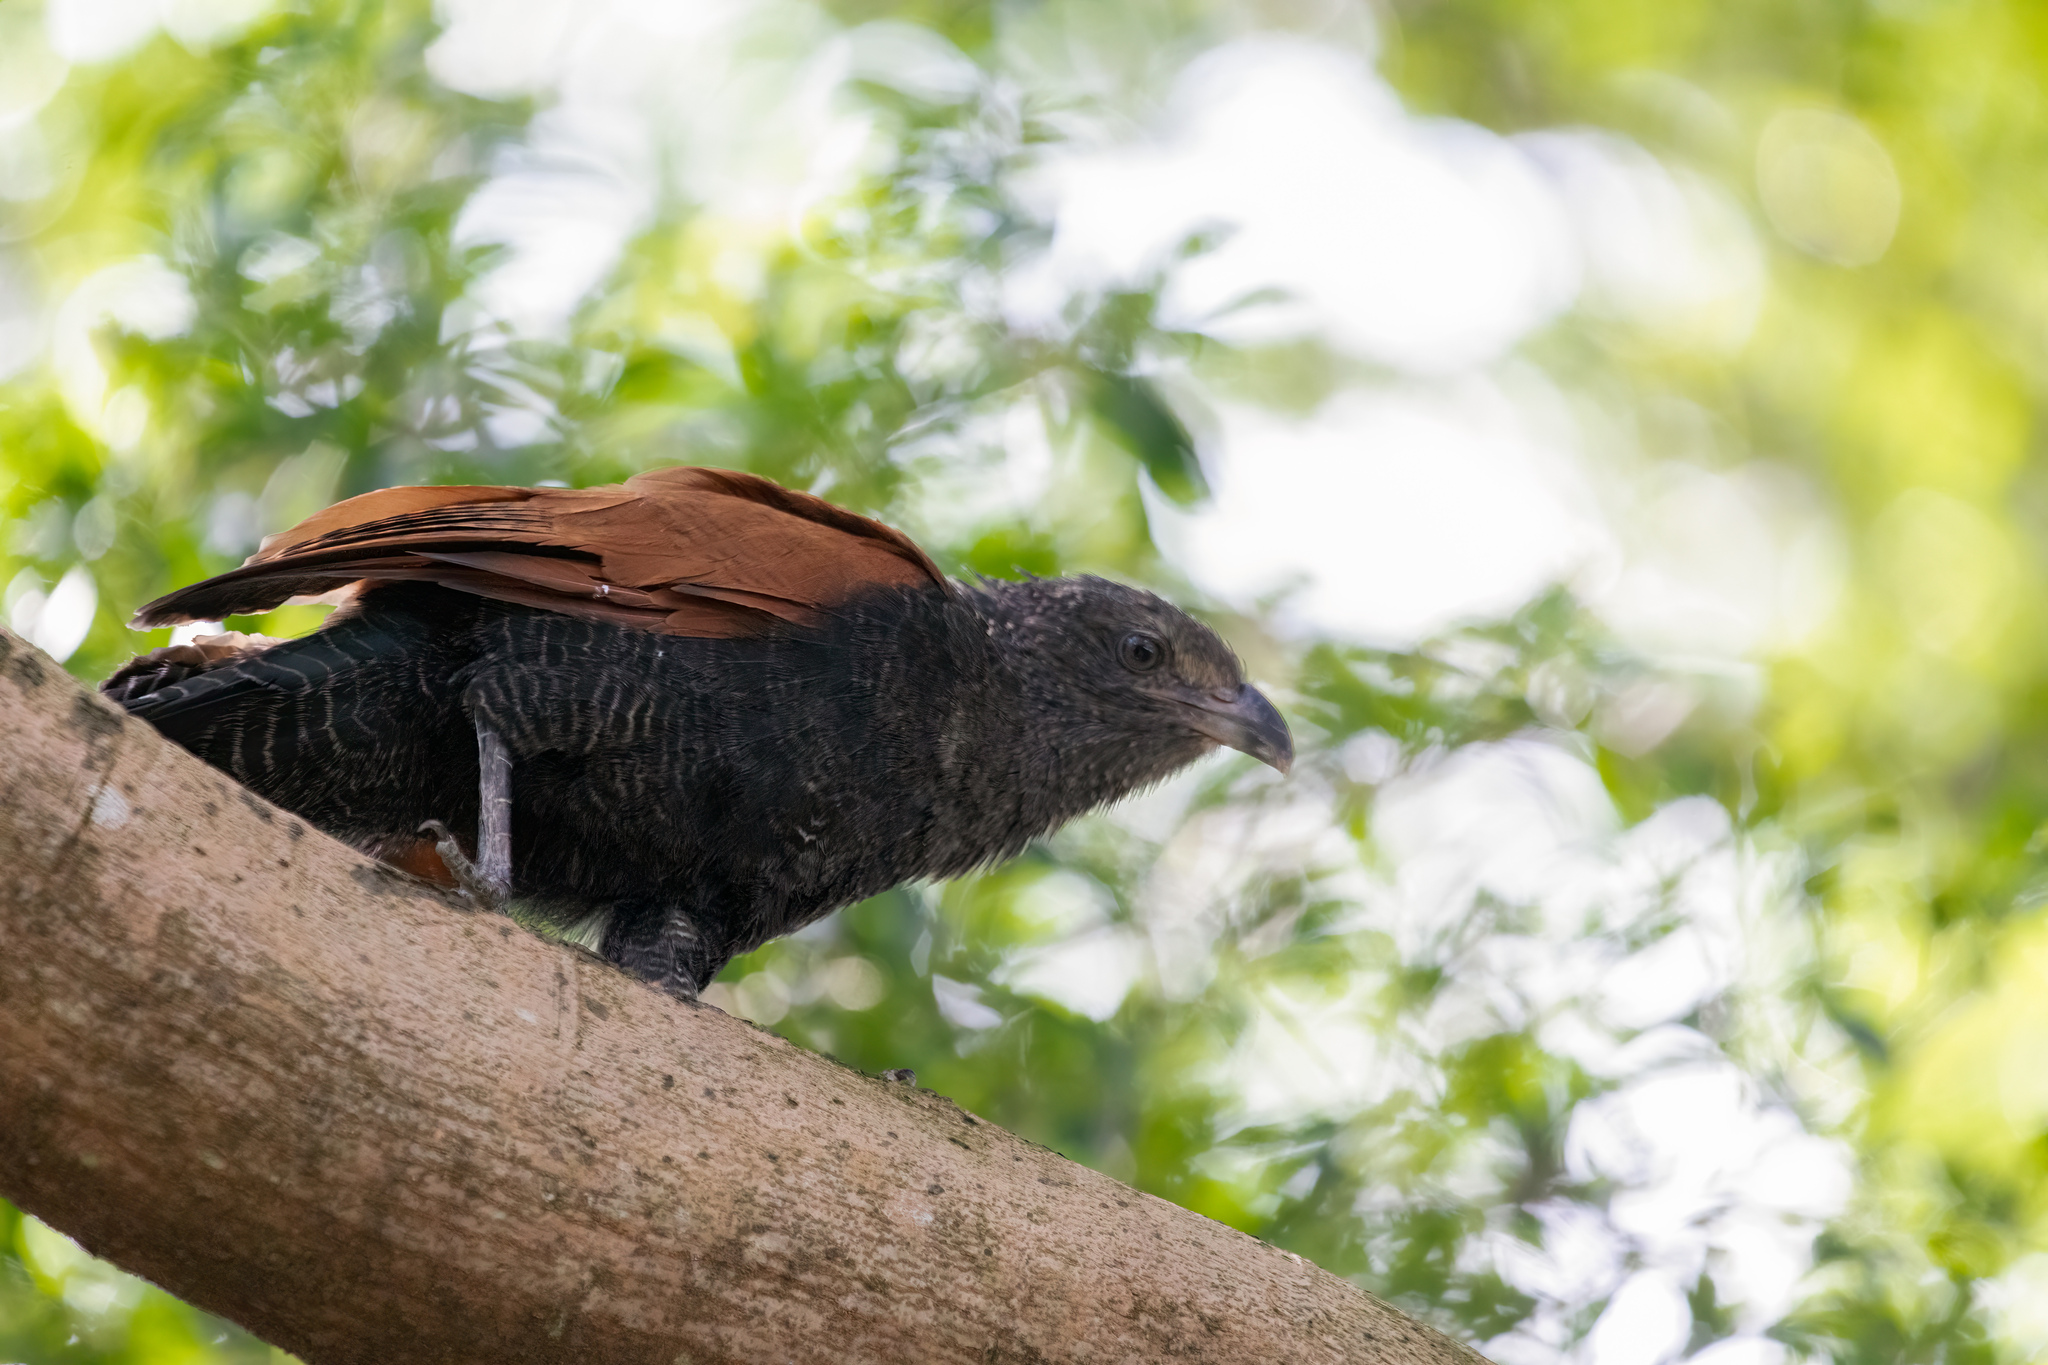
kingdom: Animalia
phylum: Chordata
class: Aves
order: Cuculiformes
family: Cuculidae
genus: Centropus
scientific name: Centropus sinensis
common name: Greater coucal
